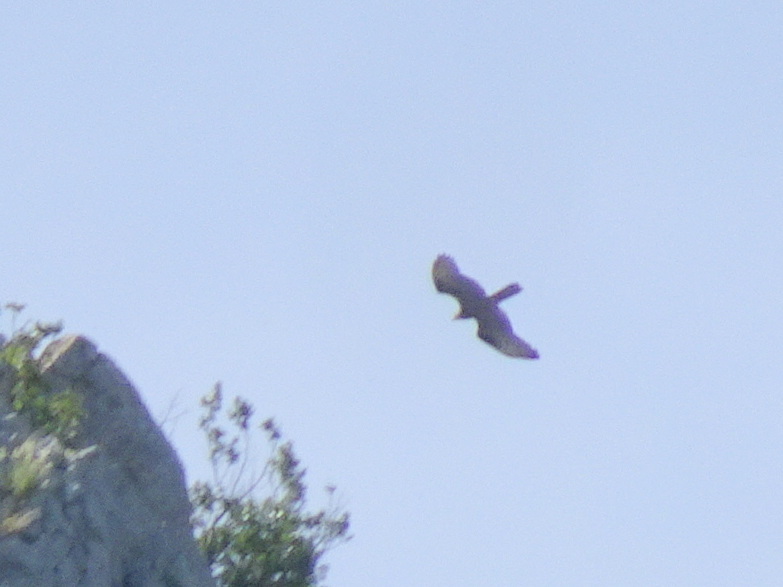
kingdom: Animalia
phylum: Chordata
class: Aves
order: Accipitriformes
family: Accipitridae
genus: Milvus
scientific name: Milvus migrans
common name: Black kite
